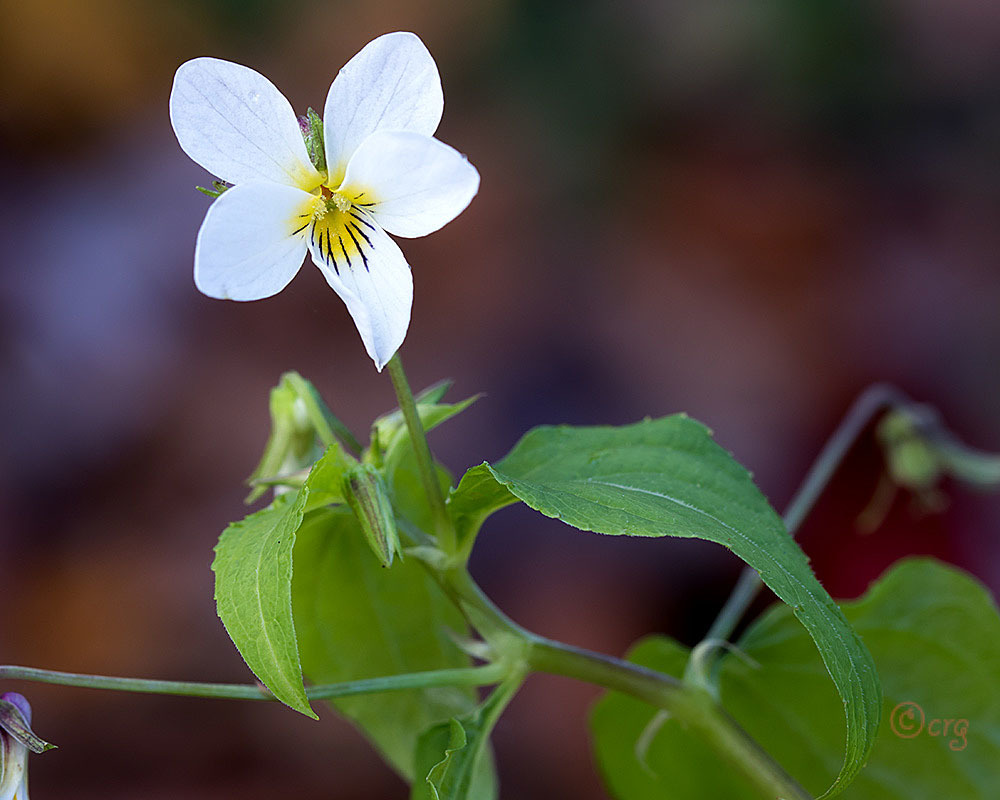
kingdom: Plantae
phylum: Tracheophyta
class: Magnoliopsida
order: Malpighiales
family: Violaceae
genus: Viola
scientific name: Viola canadensis
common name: Canada violet
